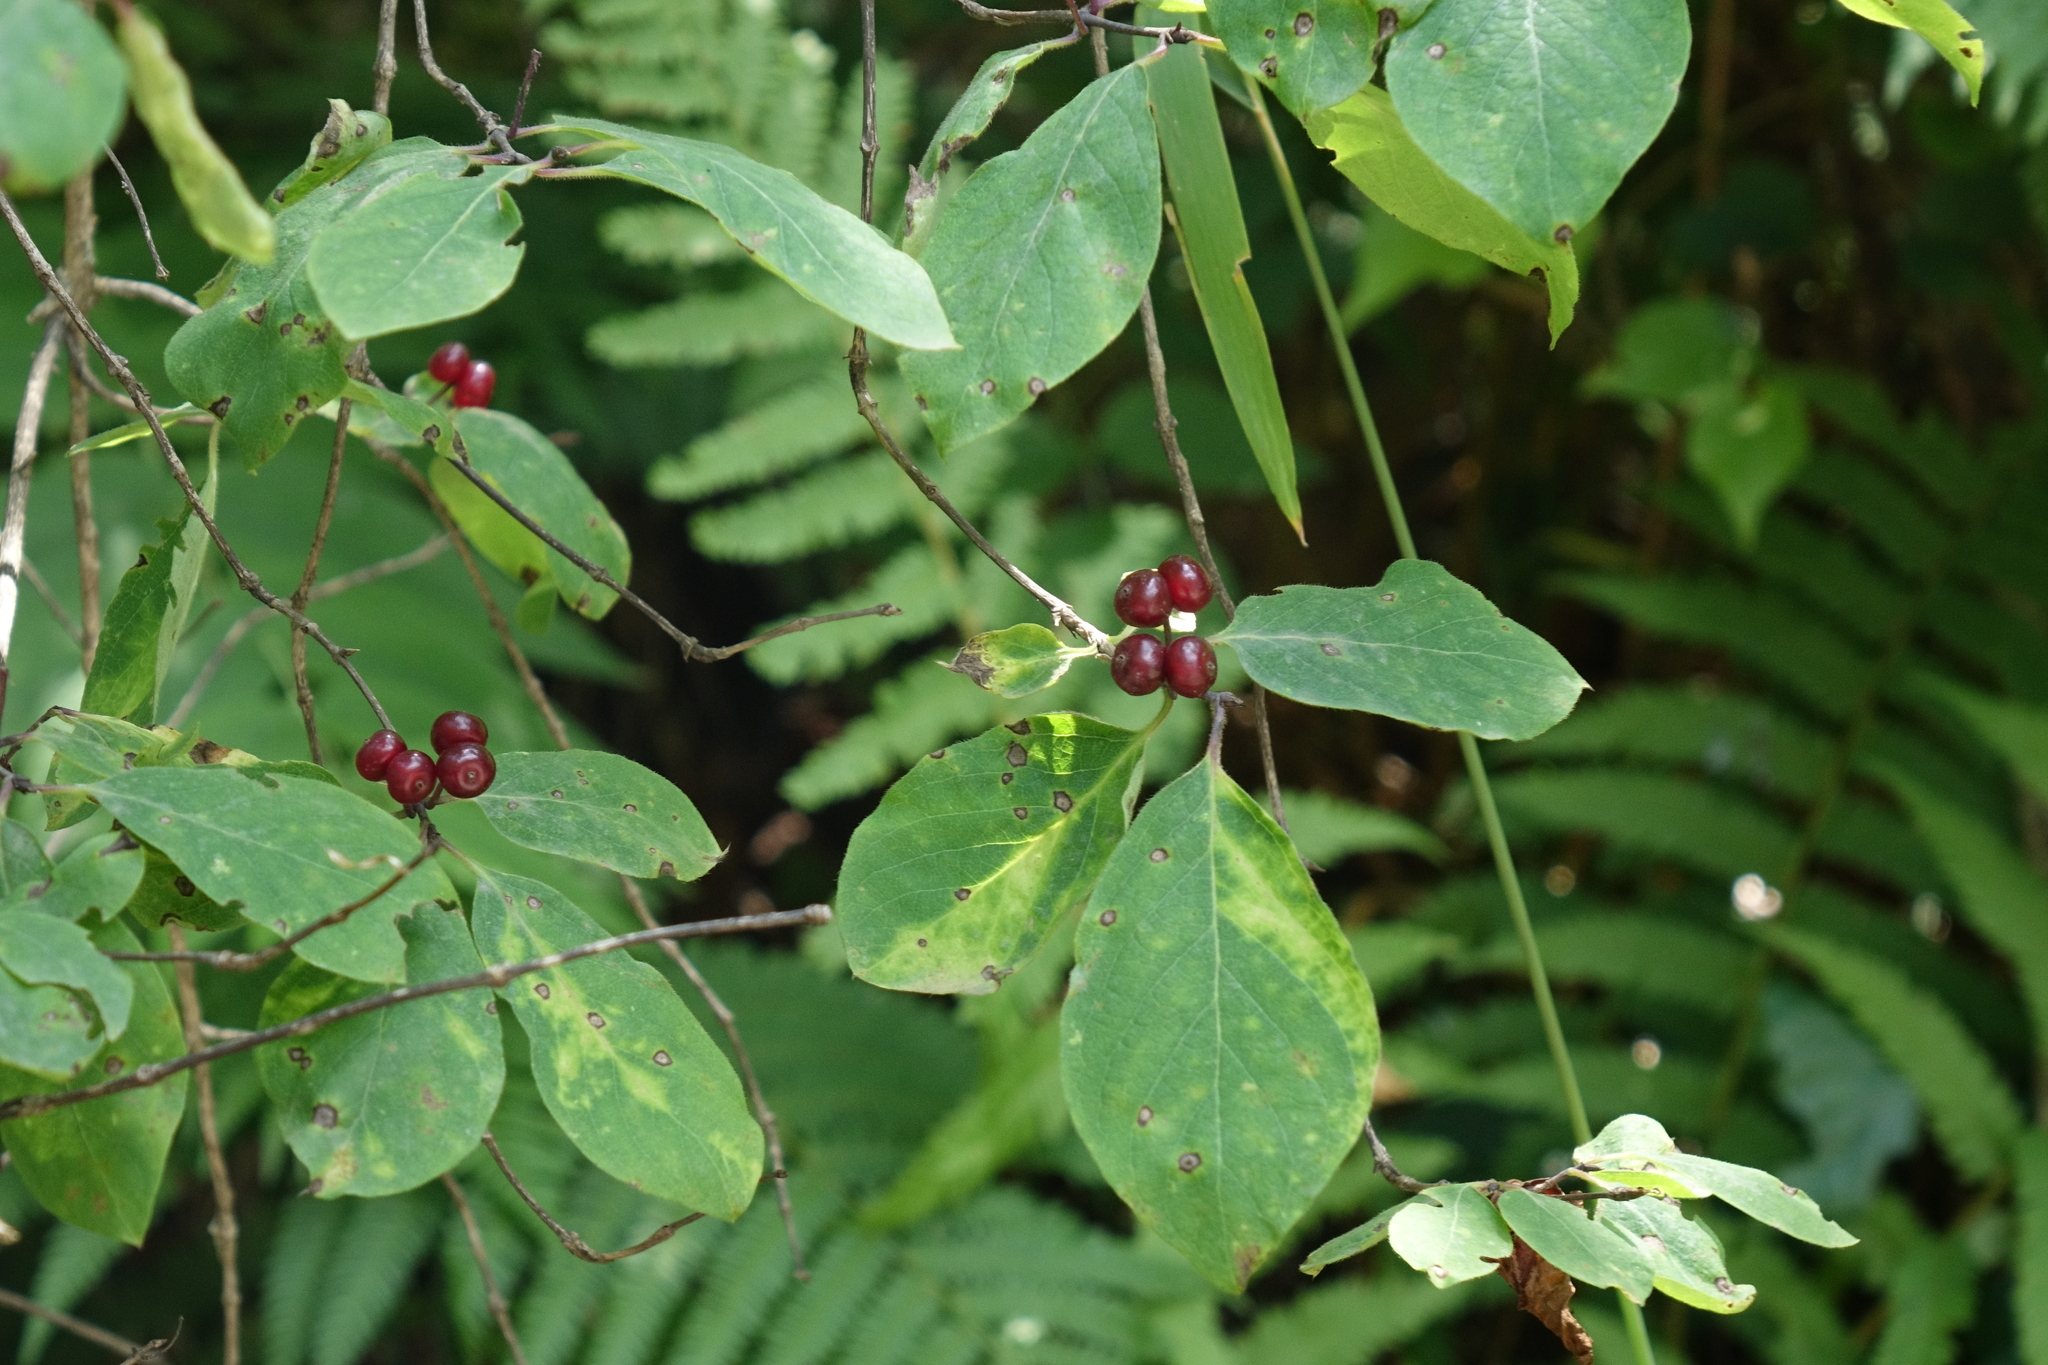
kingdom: Plantae
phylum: Tracheophyta
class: Magnoliopsida
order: Dipsacales
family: Caprifoliaceae
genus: Lonicera
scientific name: Lonicera steveniana
